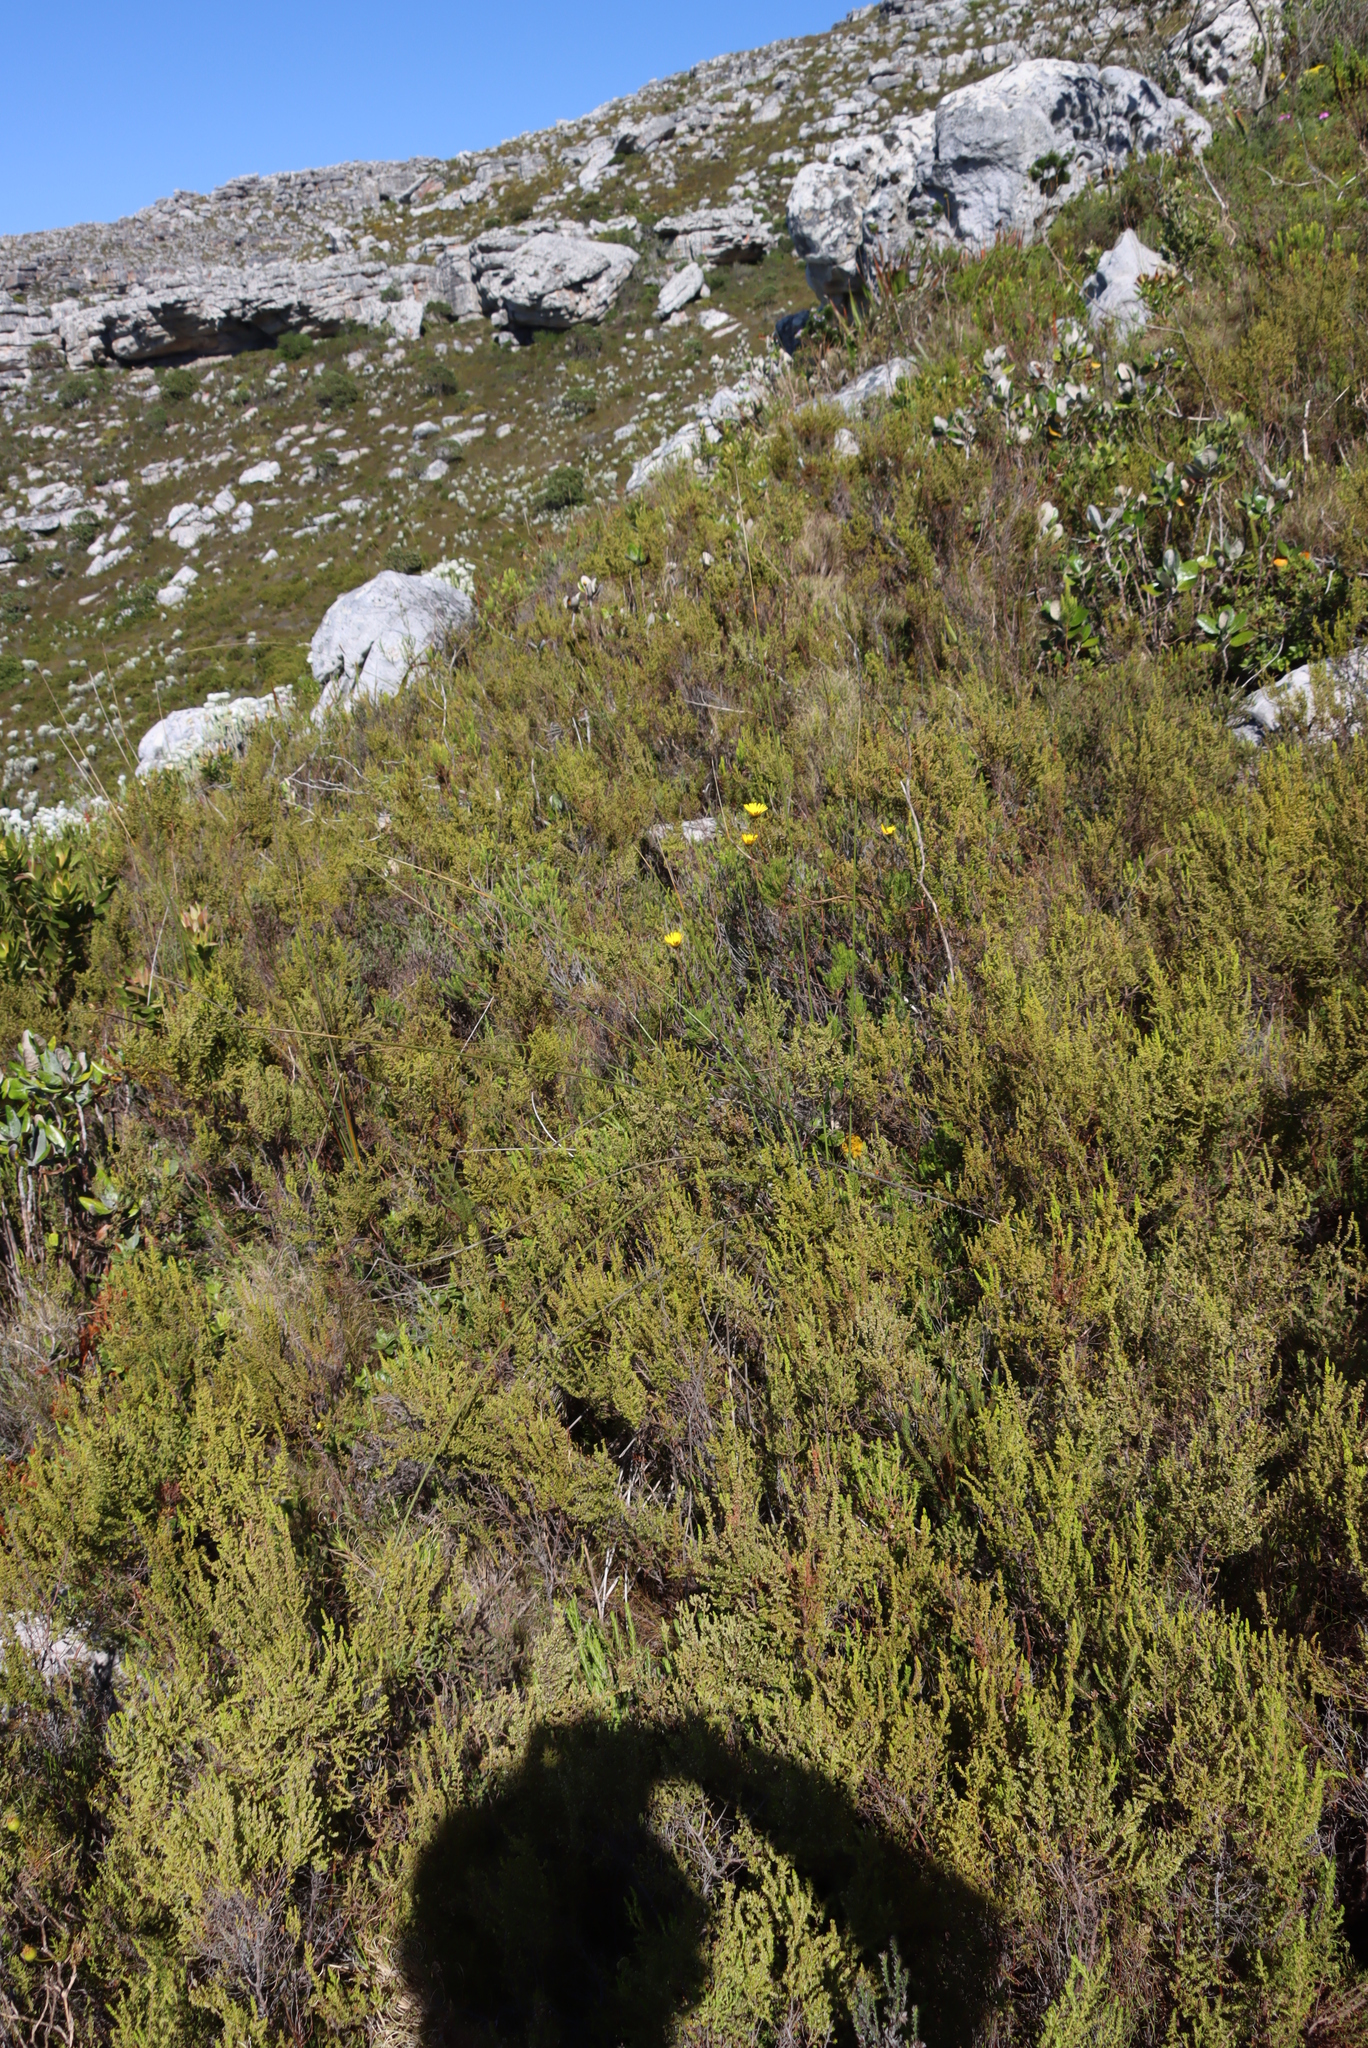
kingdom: Plantae
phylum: Tracheophyta
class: Magnoliopsida
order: Asterales
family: Asteraceae
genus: Euryops
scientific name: Euryops abrotanifolius
